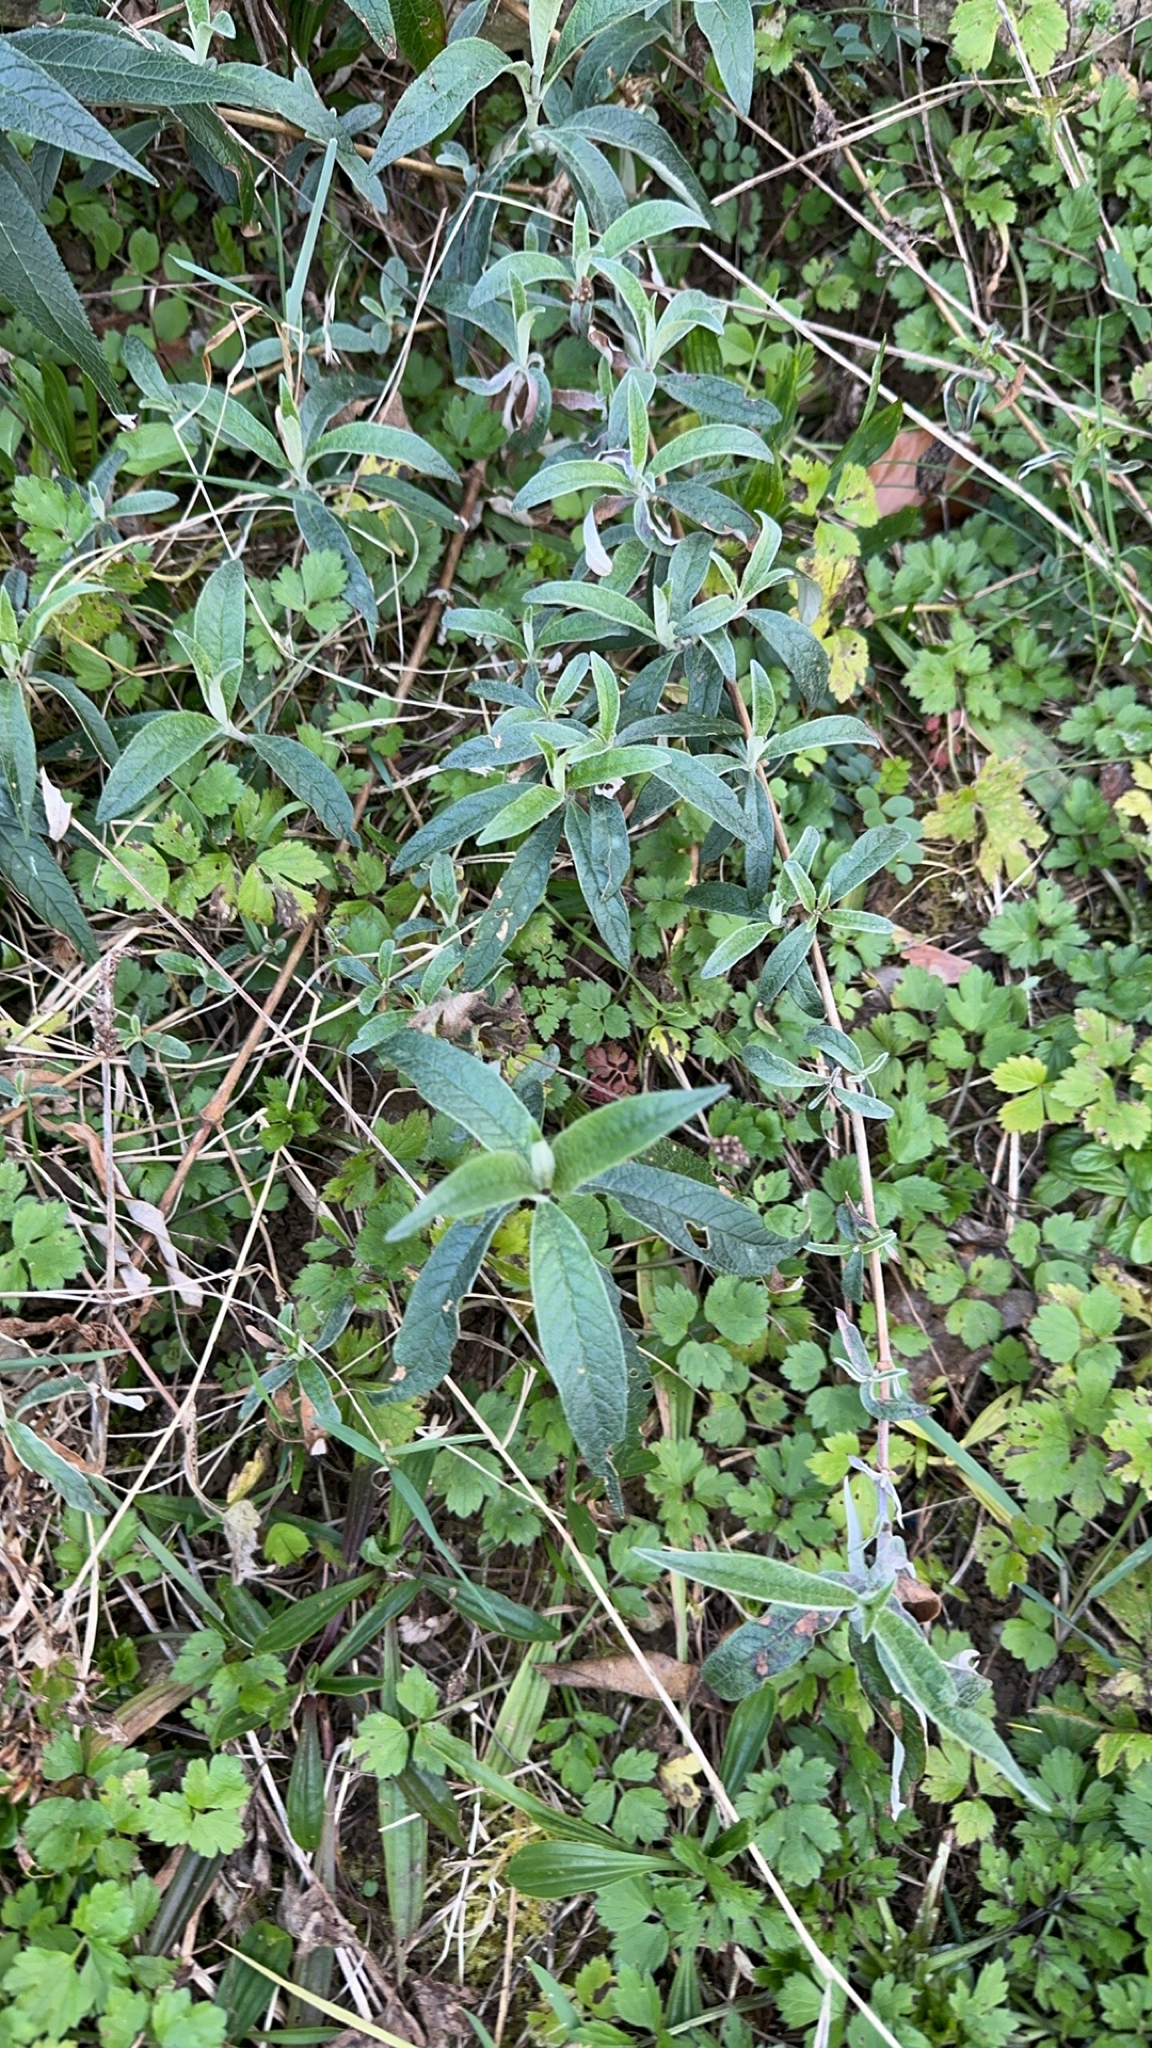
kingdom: Plantae
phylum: Tracheophyta
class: Magnoliopsida
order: Lamiales
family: Scrophulariaceae
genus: Buddleja
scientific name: Buddleja davidii
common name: Butterfly-bush
